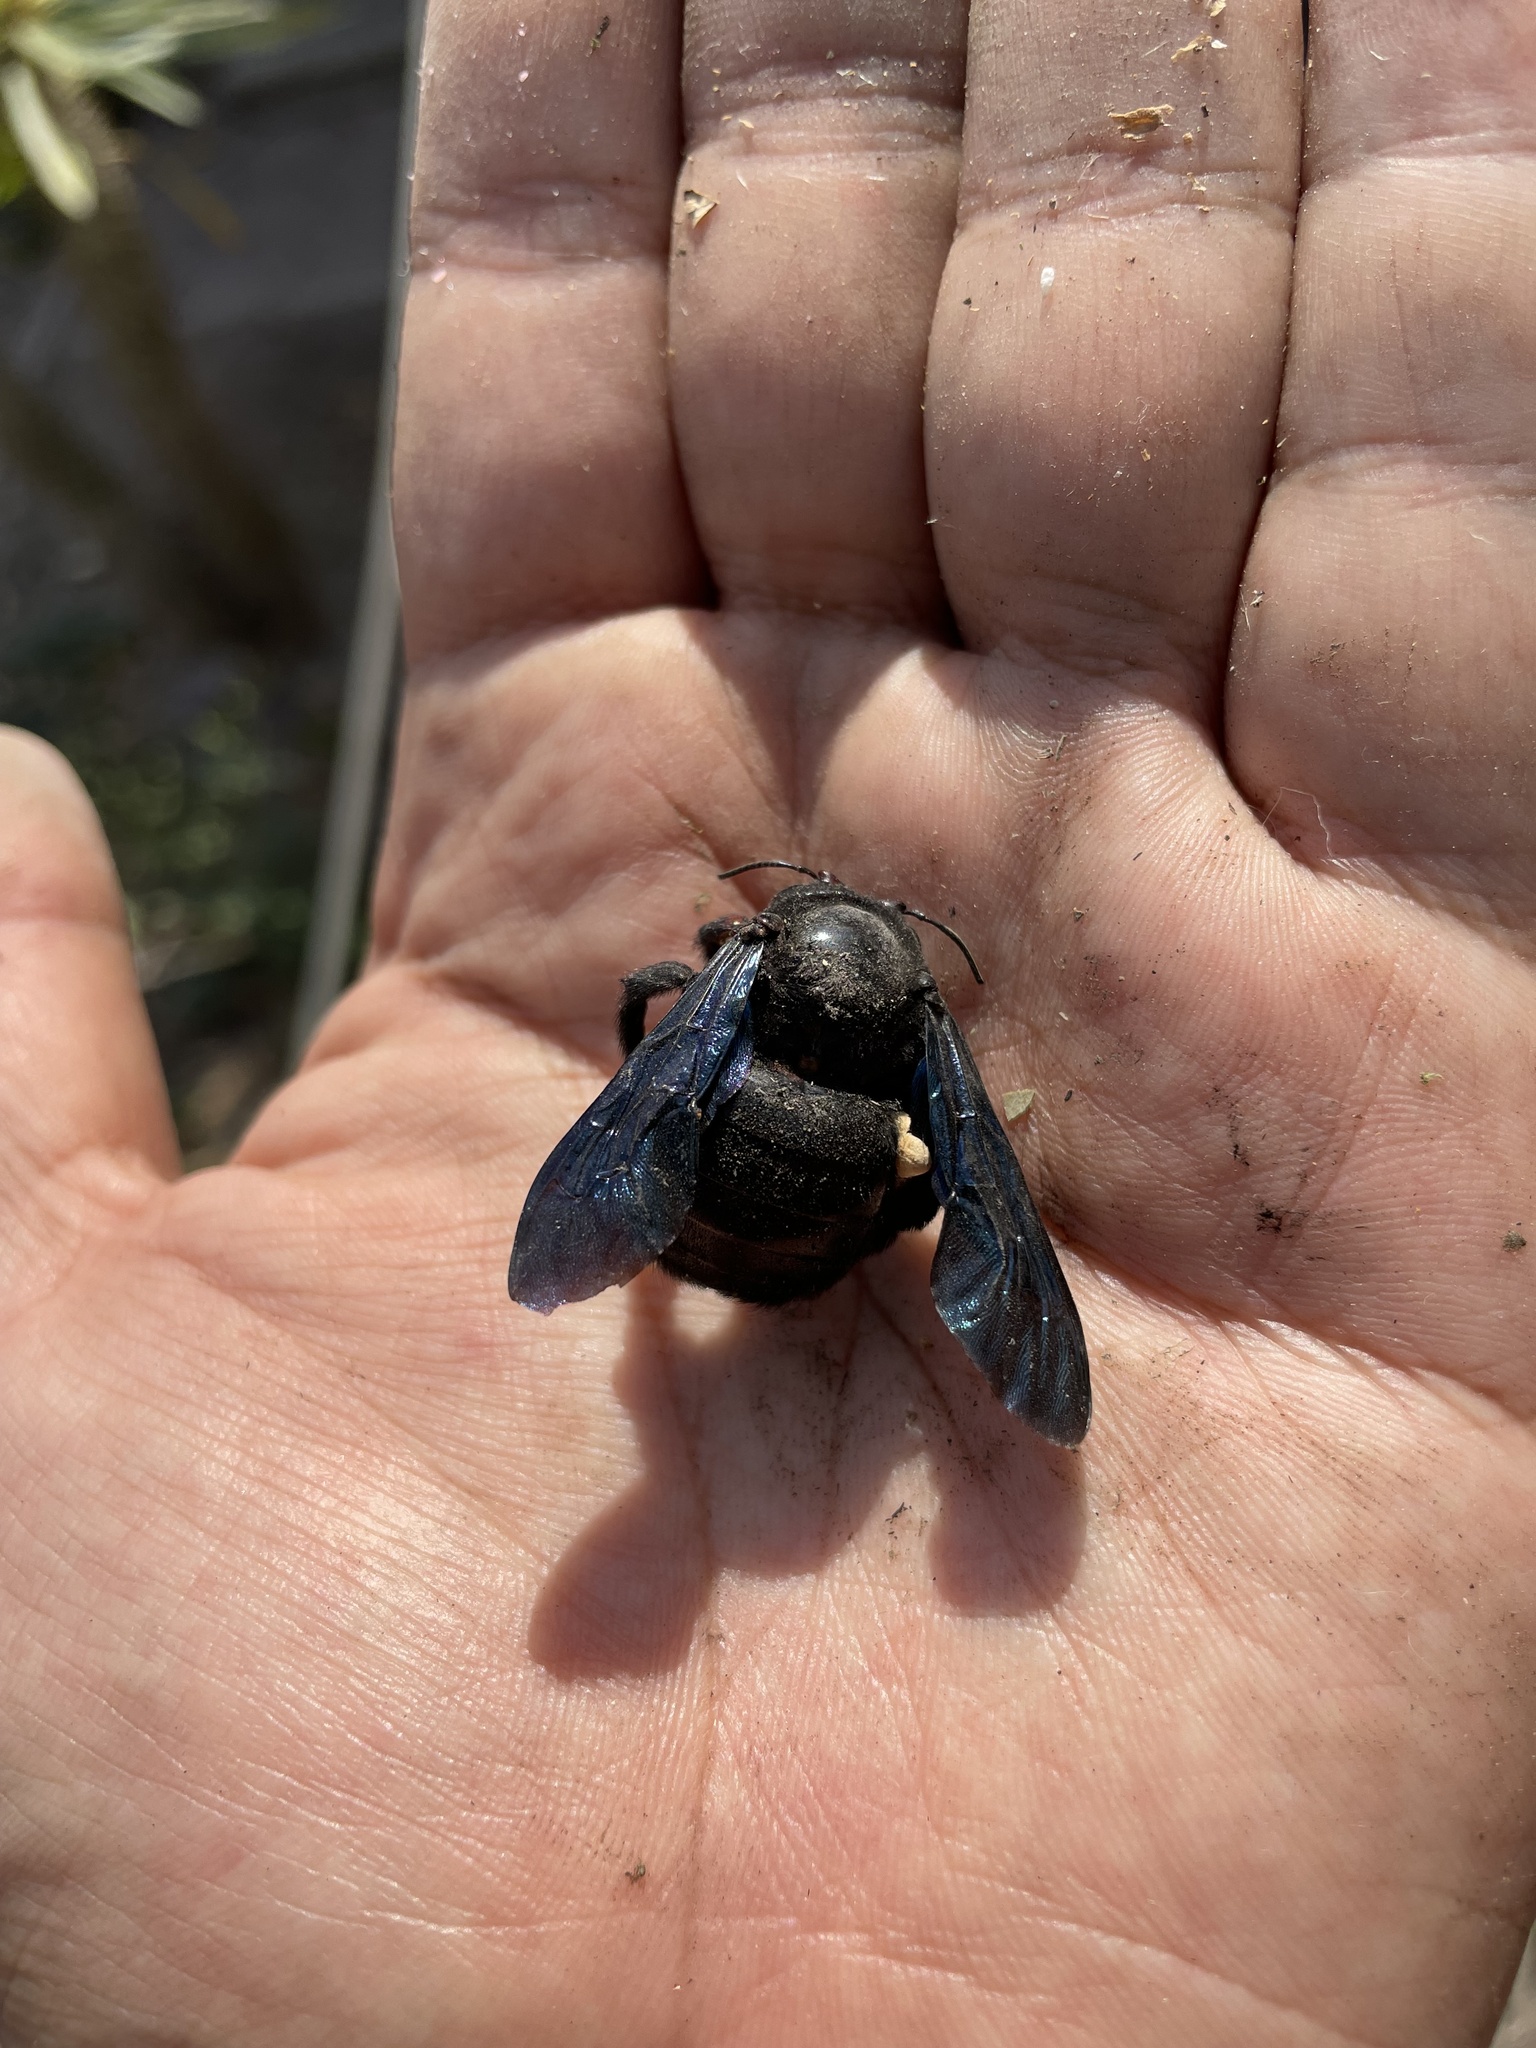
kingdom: Animalia
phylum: Arthropoda
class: Insecta
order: Hymenoptera
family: Apidae
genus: Xylocopa
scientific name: Xylocopa fimbriata
